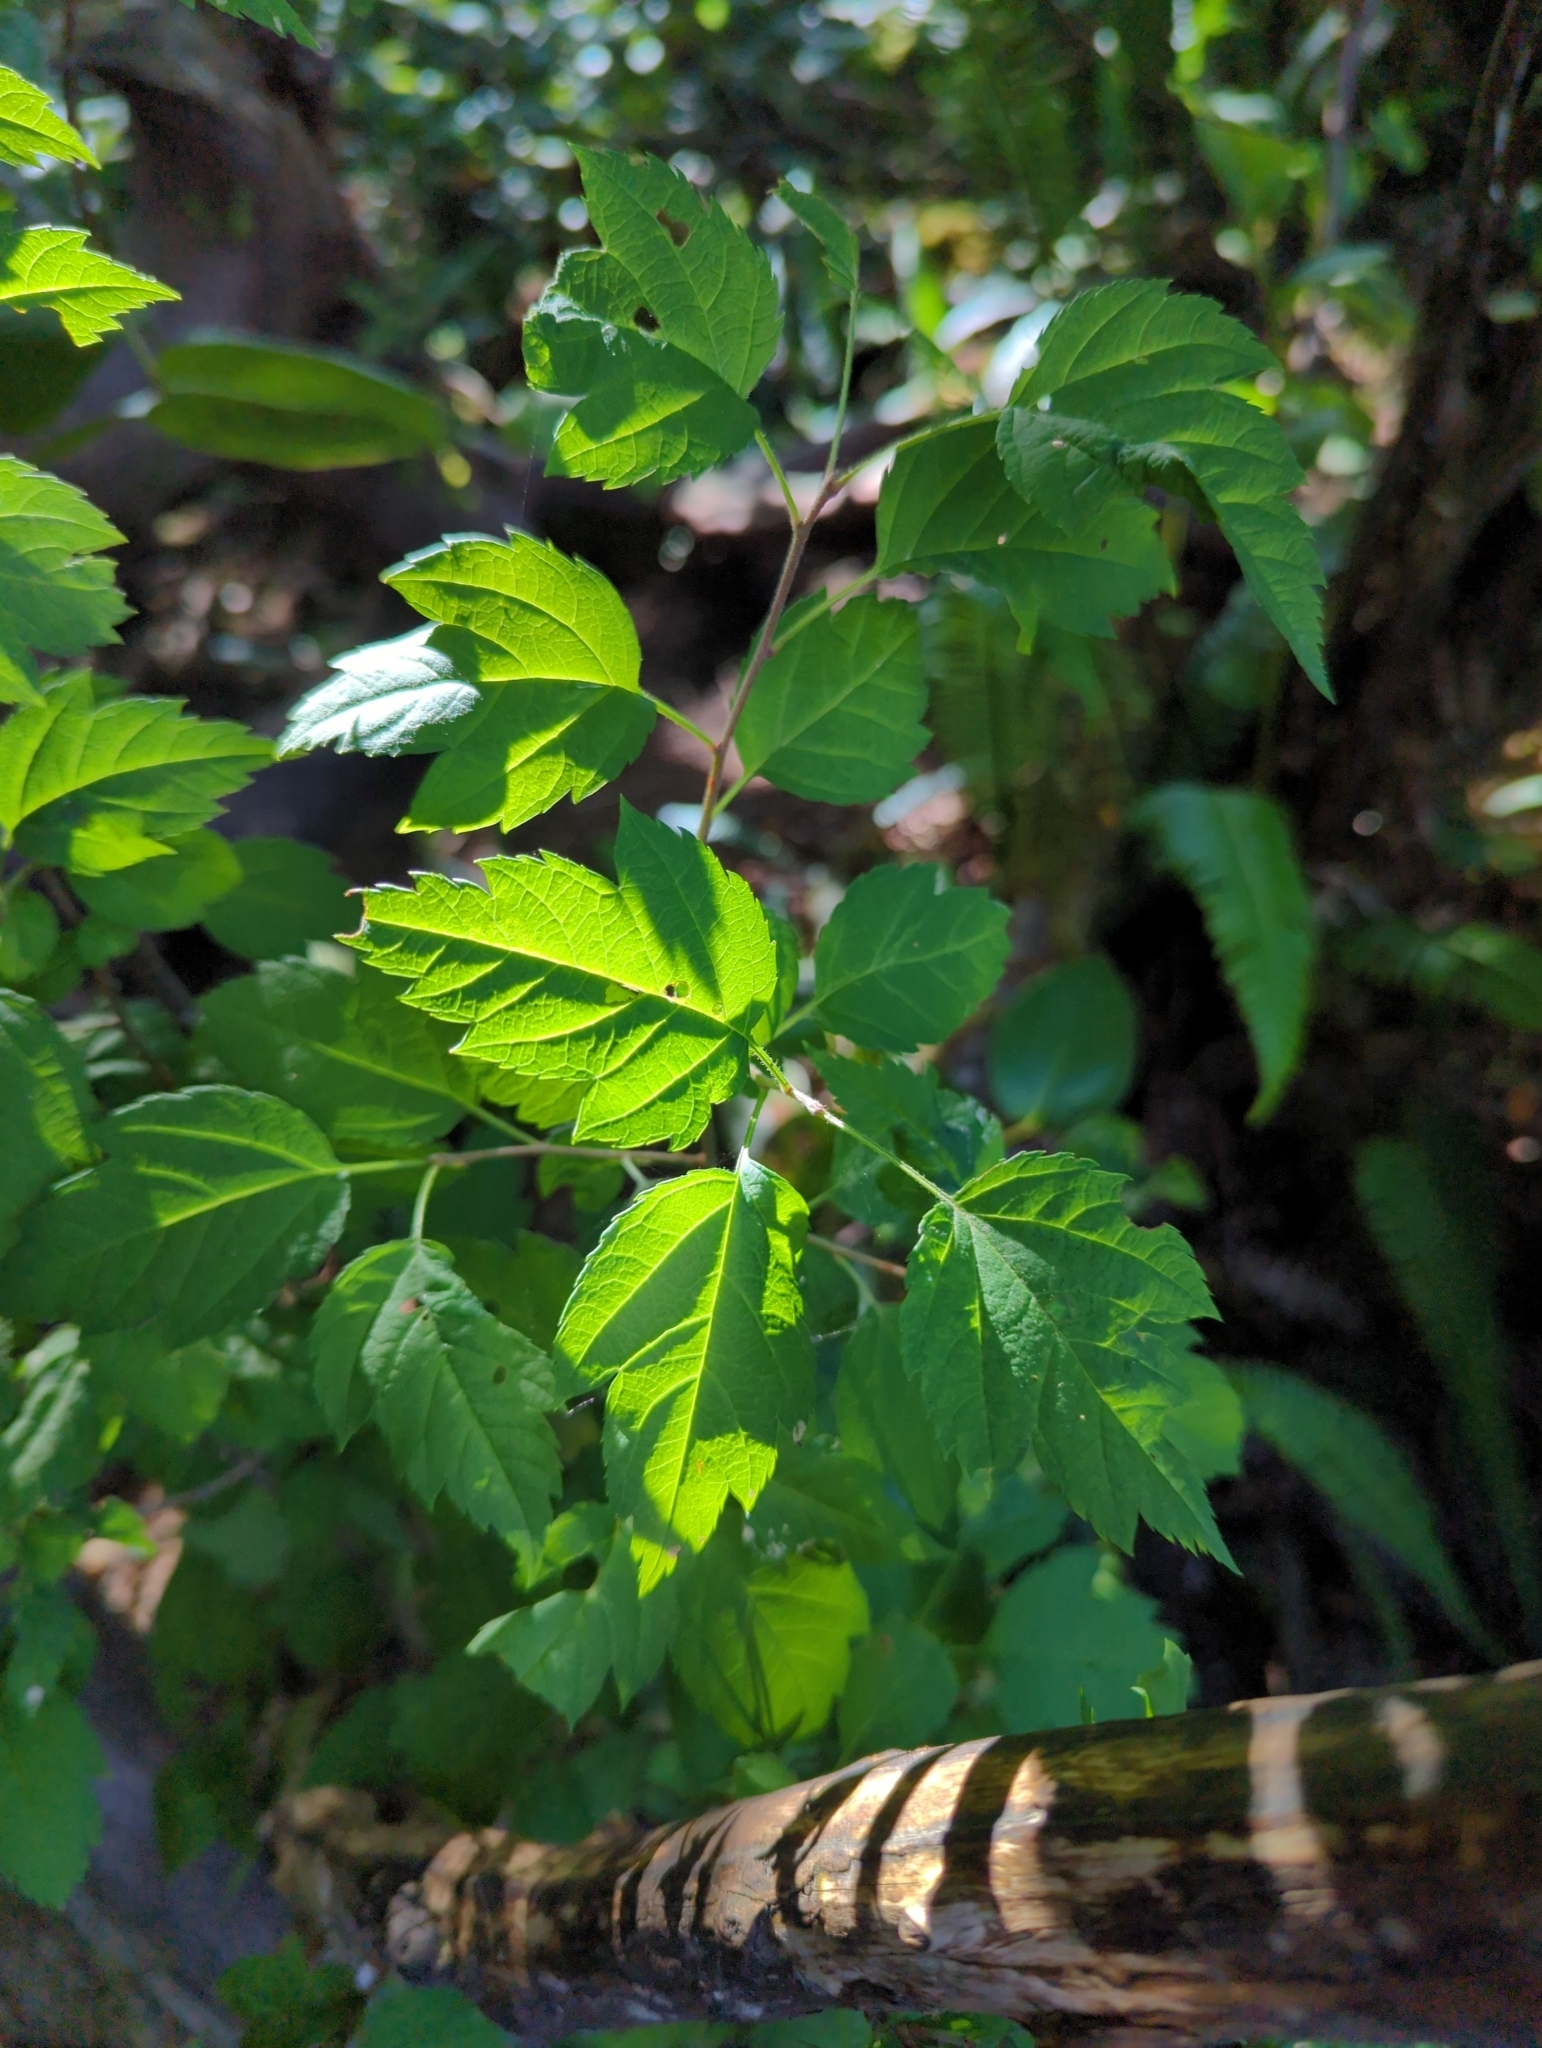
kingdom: Plantae
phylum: Tracheophyta
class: Magnoliopsida
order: Rosales
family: Rosaceae
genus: Malus
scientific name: Malus fusca
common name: Oregon crab apple
